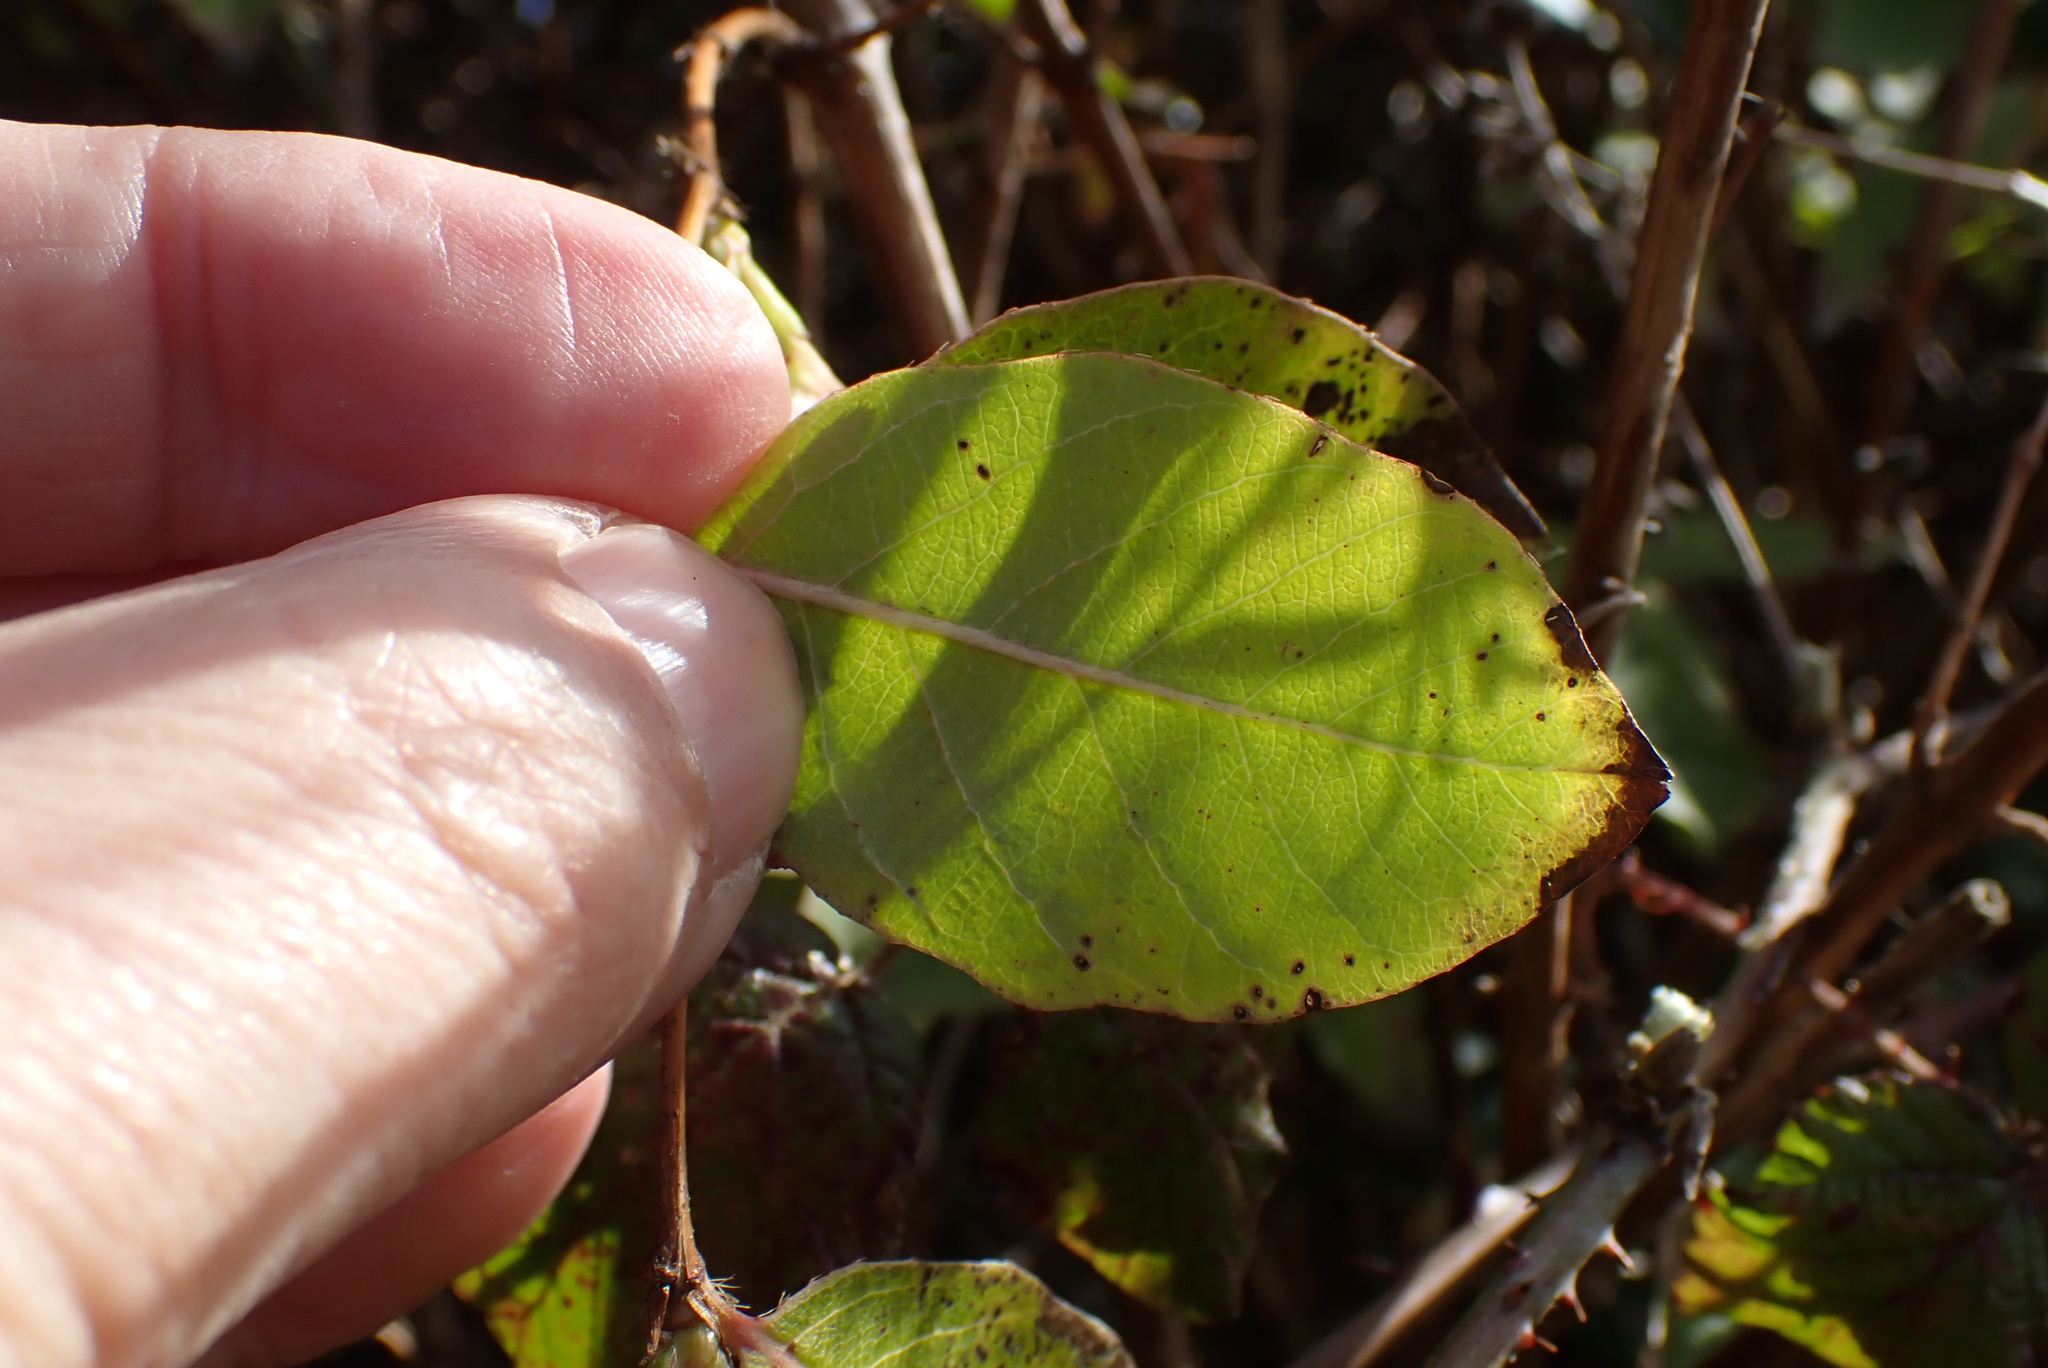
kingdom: Plantae
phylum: Tracheophyta
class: Magnoliopsida
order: Dipsacales
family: Caprifoliaceae
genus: Lonicera
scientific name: Lonicera purpusii
